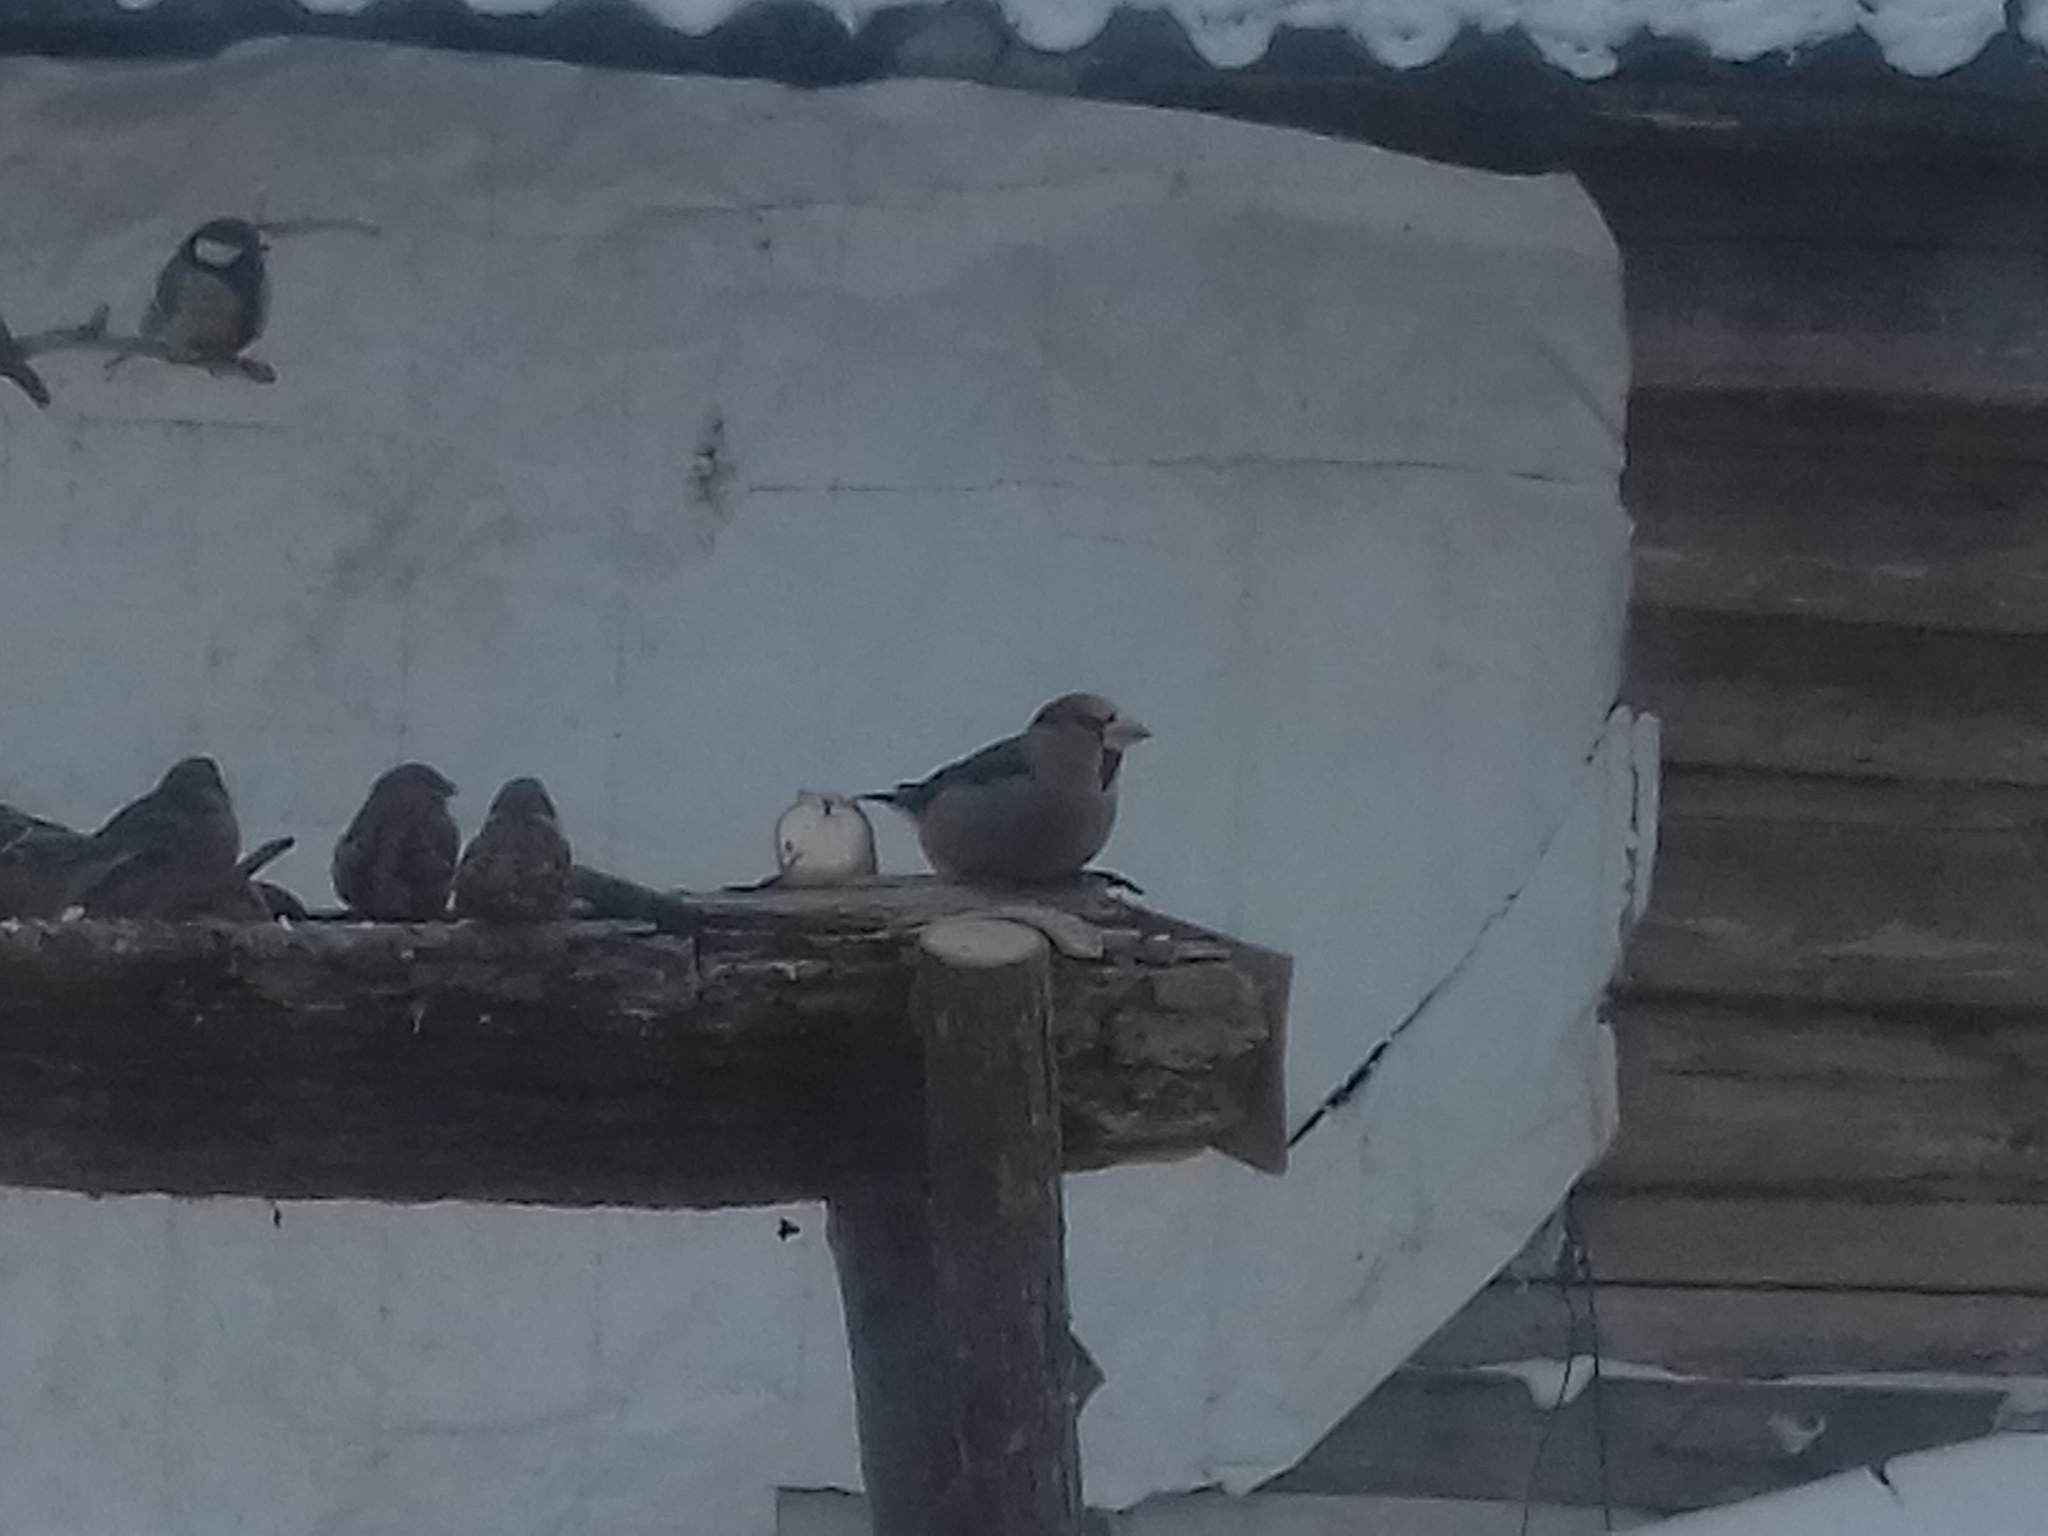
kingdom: Animalia
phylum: Chordata
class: Aves
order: Passeriformes
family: Fringillidae
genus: Coccothraustes
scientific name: Coccothraustes coccothraustes
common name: Hawfinch
